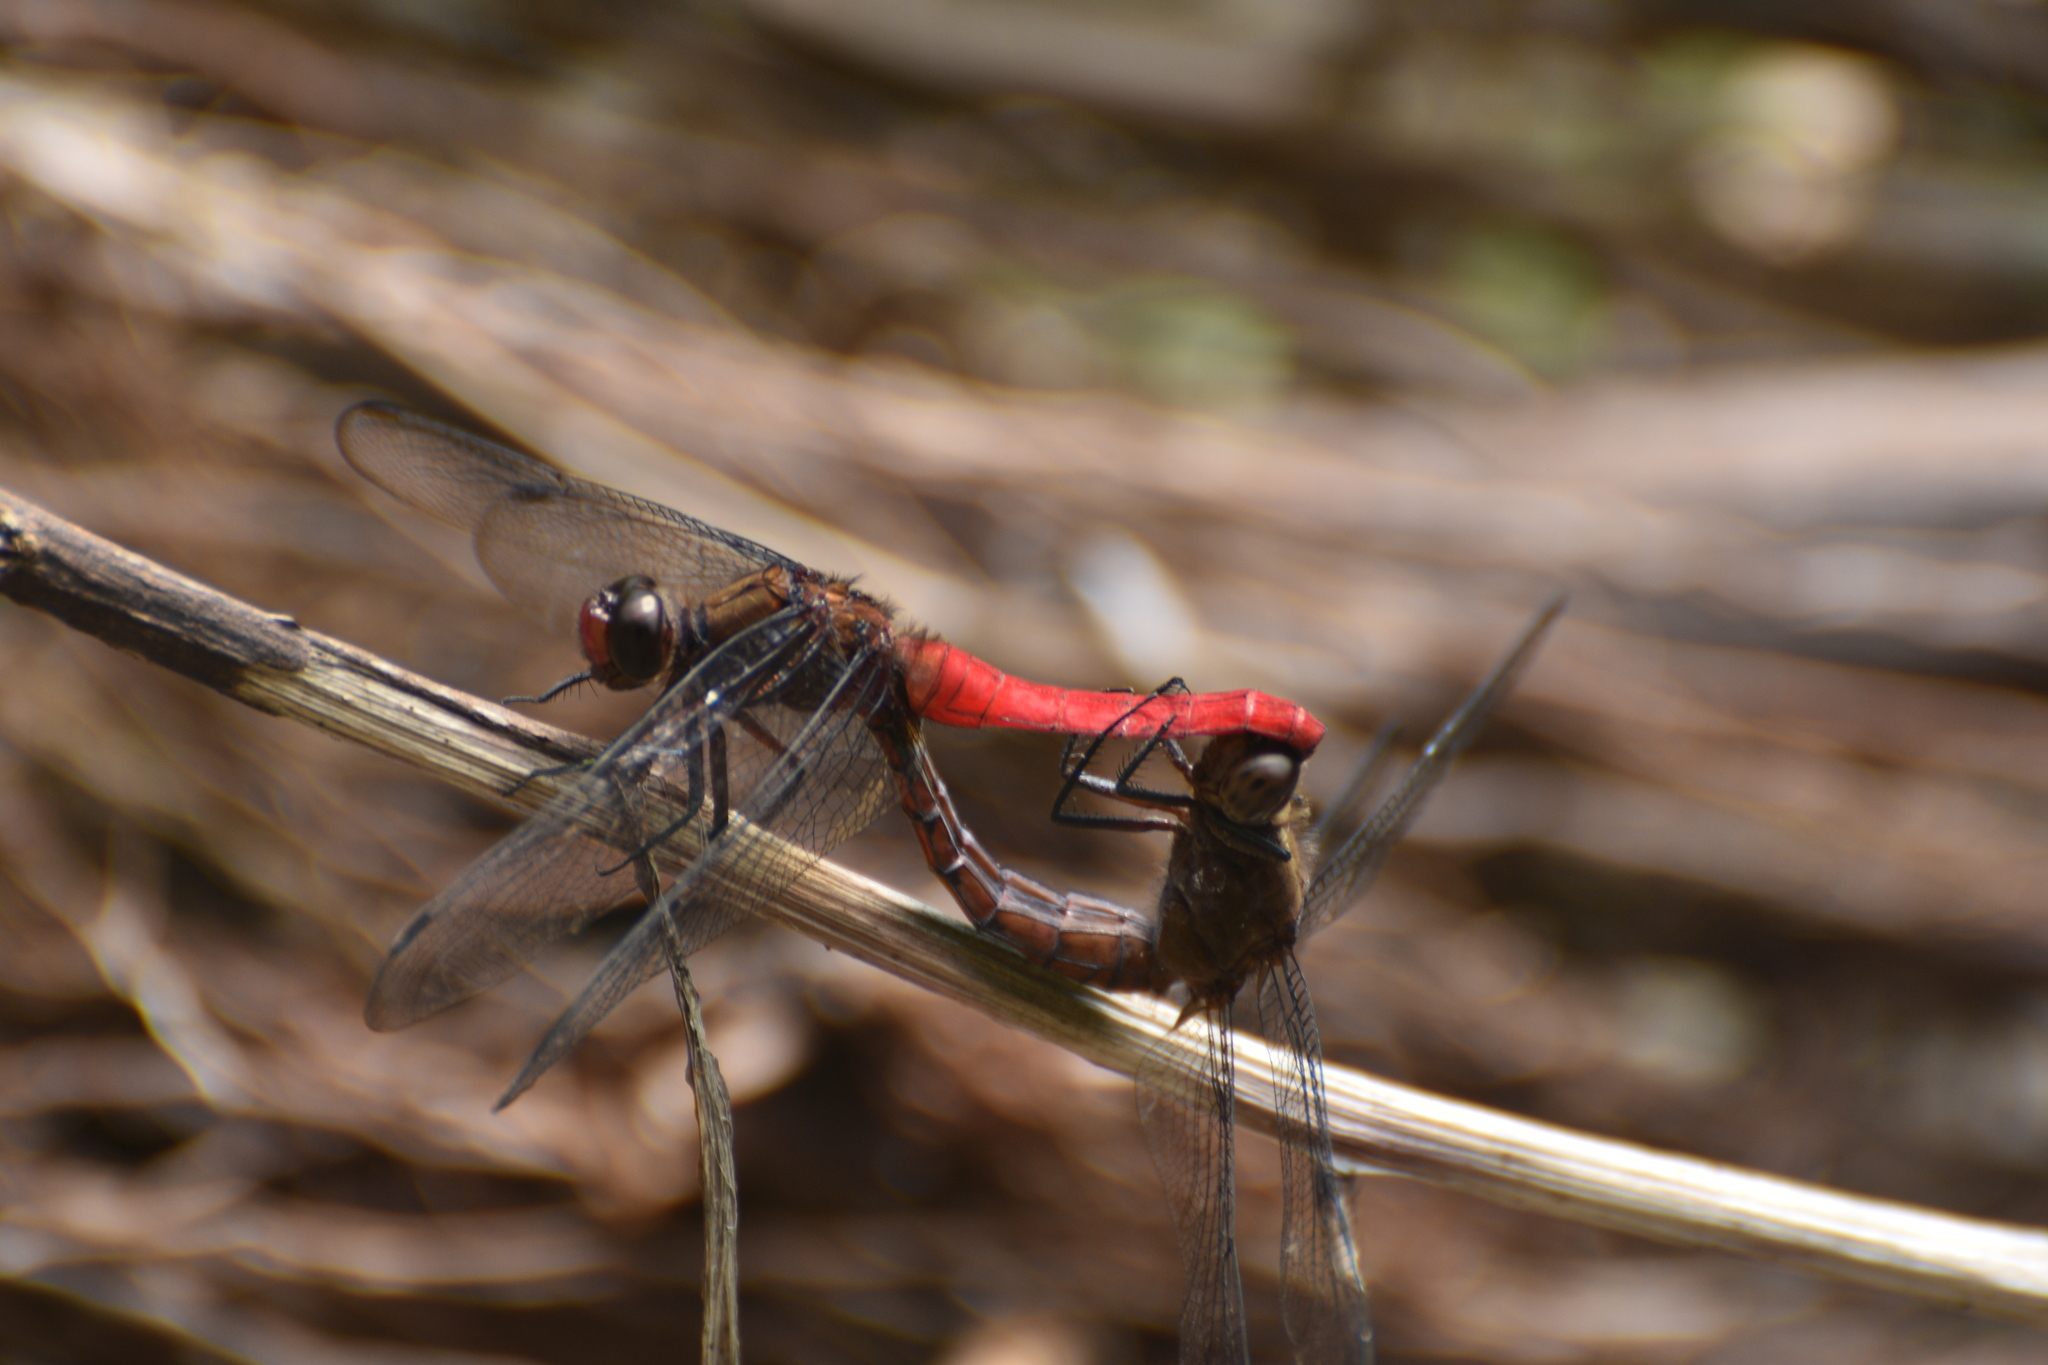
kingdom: Animalia
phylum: Arthropoda
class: Insecta
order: Odonata
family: Libellulidae
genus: Orthetrum
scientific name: Orthetrum chrysis
